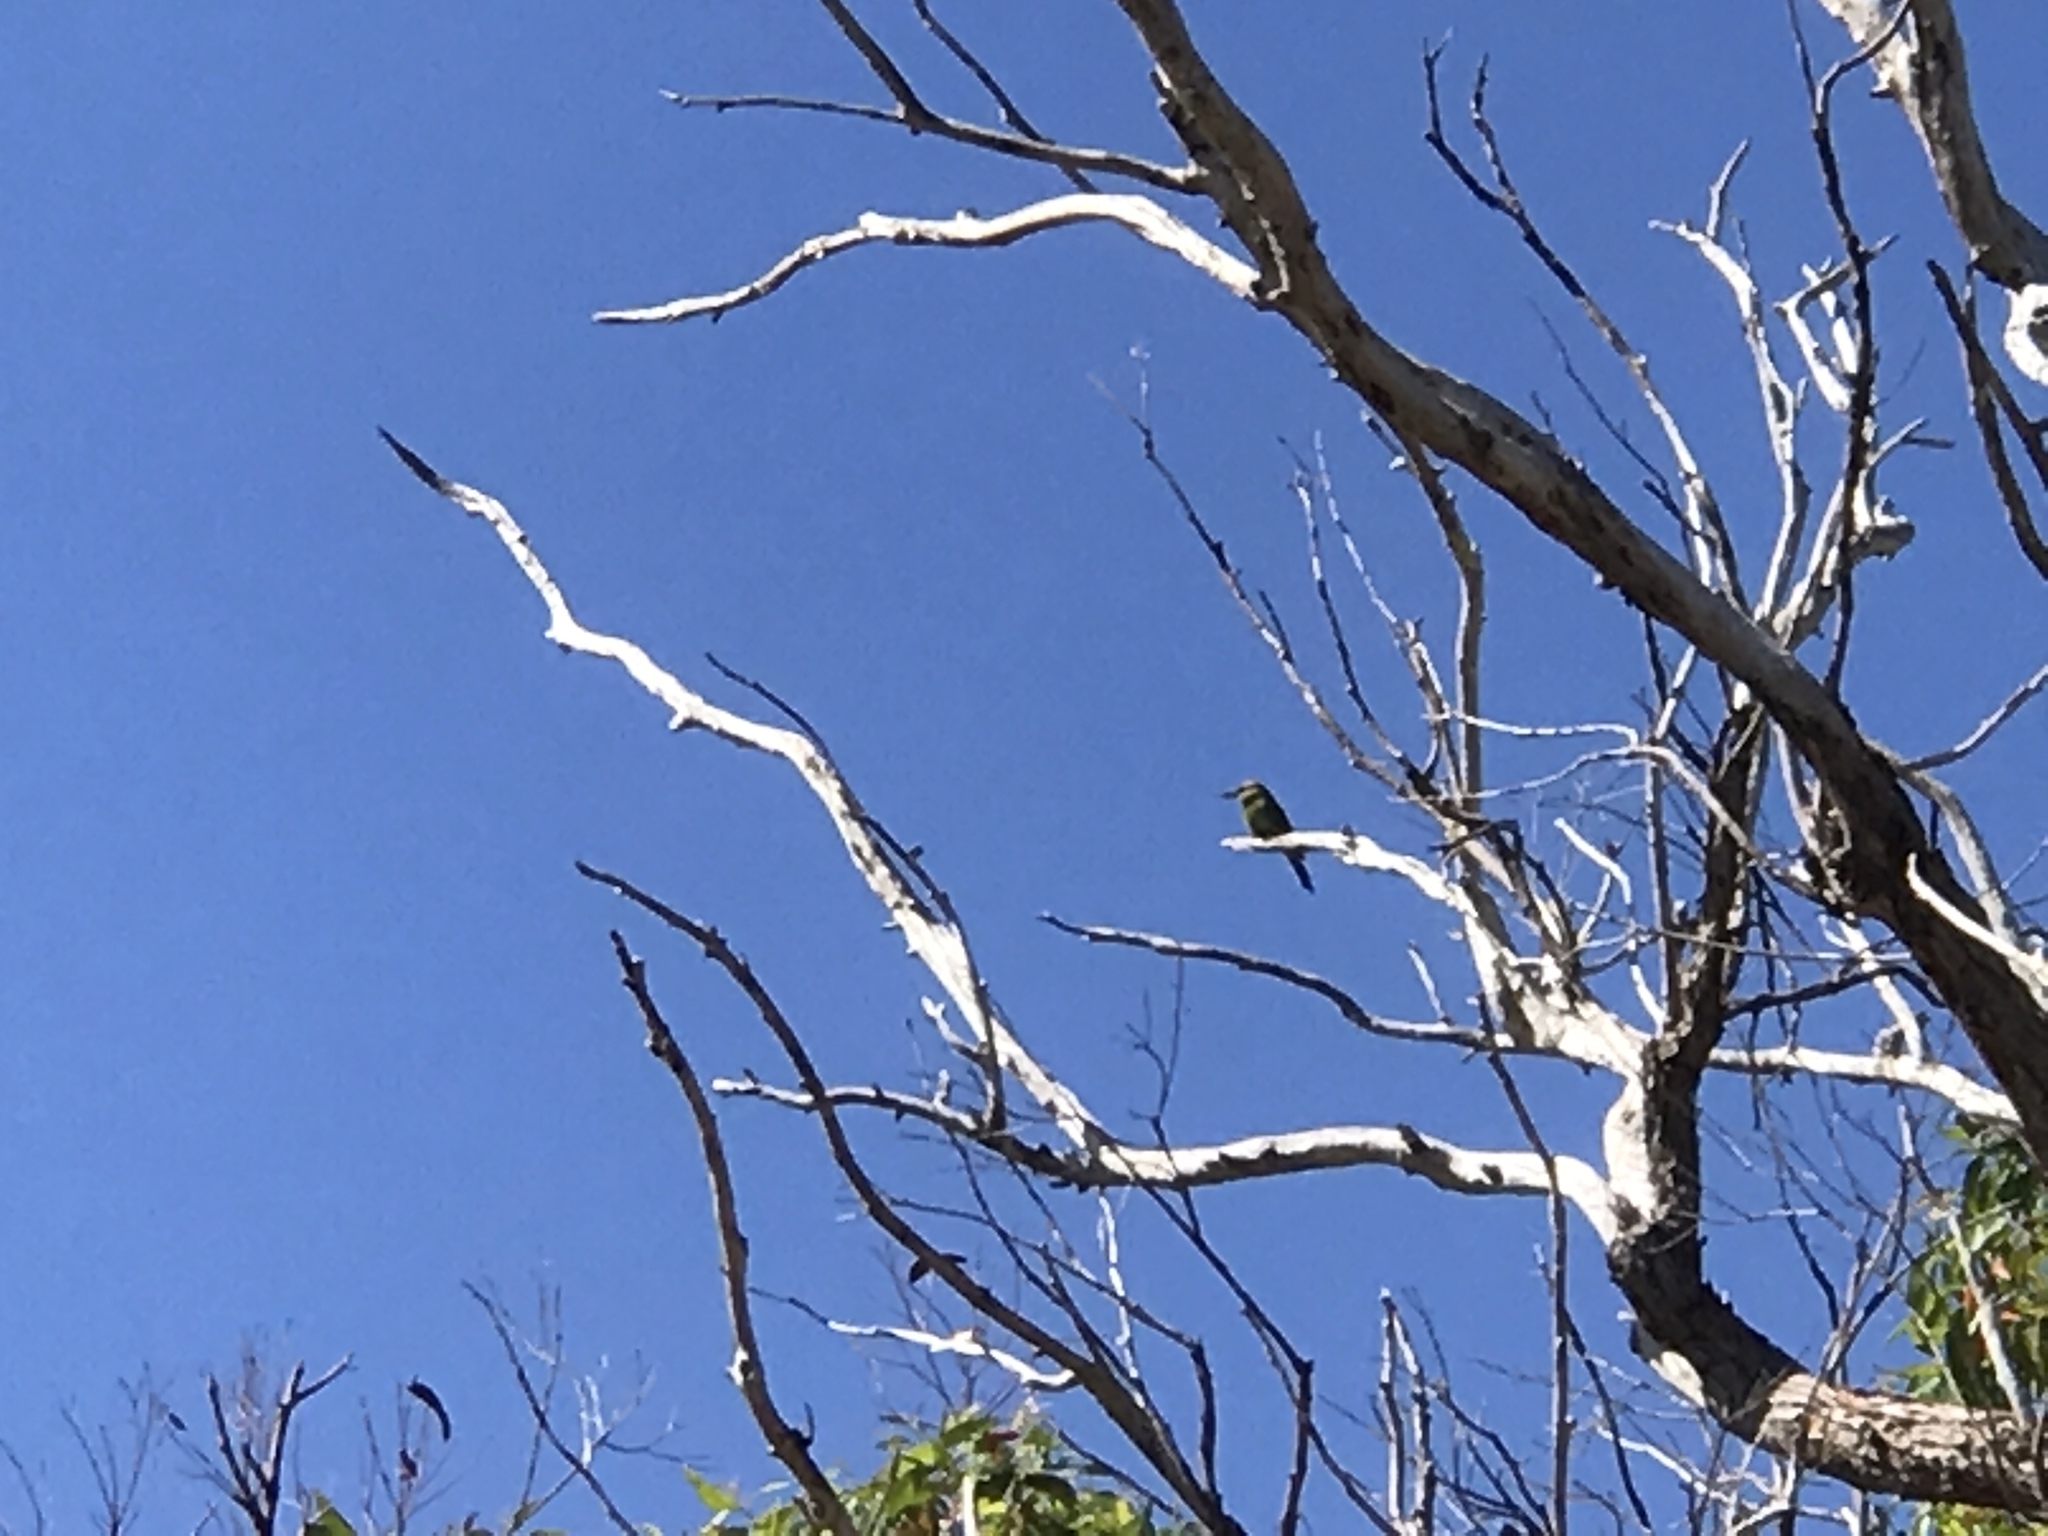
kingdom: Animalia
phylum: Chordata
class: Aves
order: Coraciiformes
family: Meropidae
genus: Merops
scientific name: Merops ornatus
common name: Rainbow bee-eater
